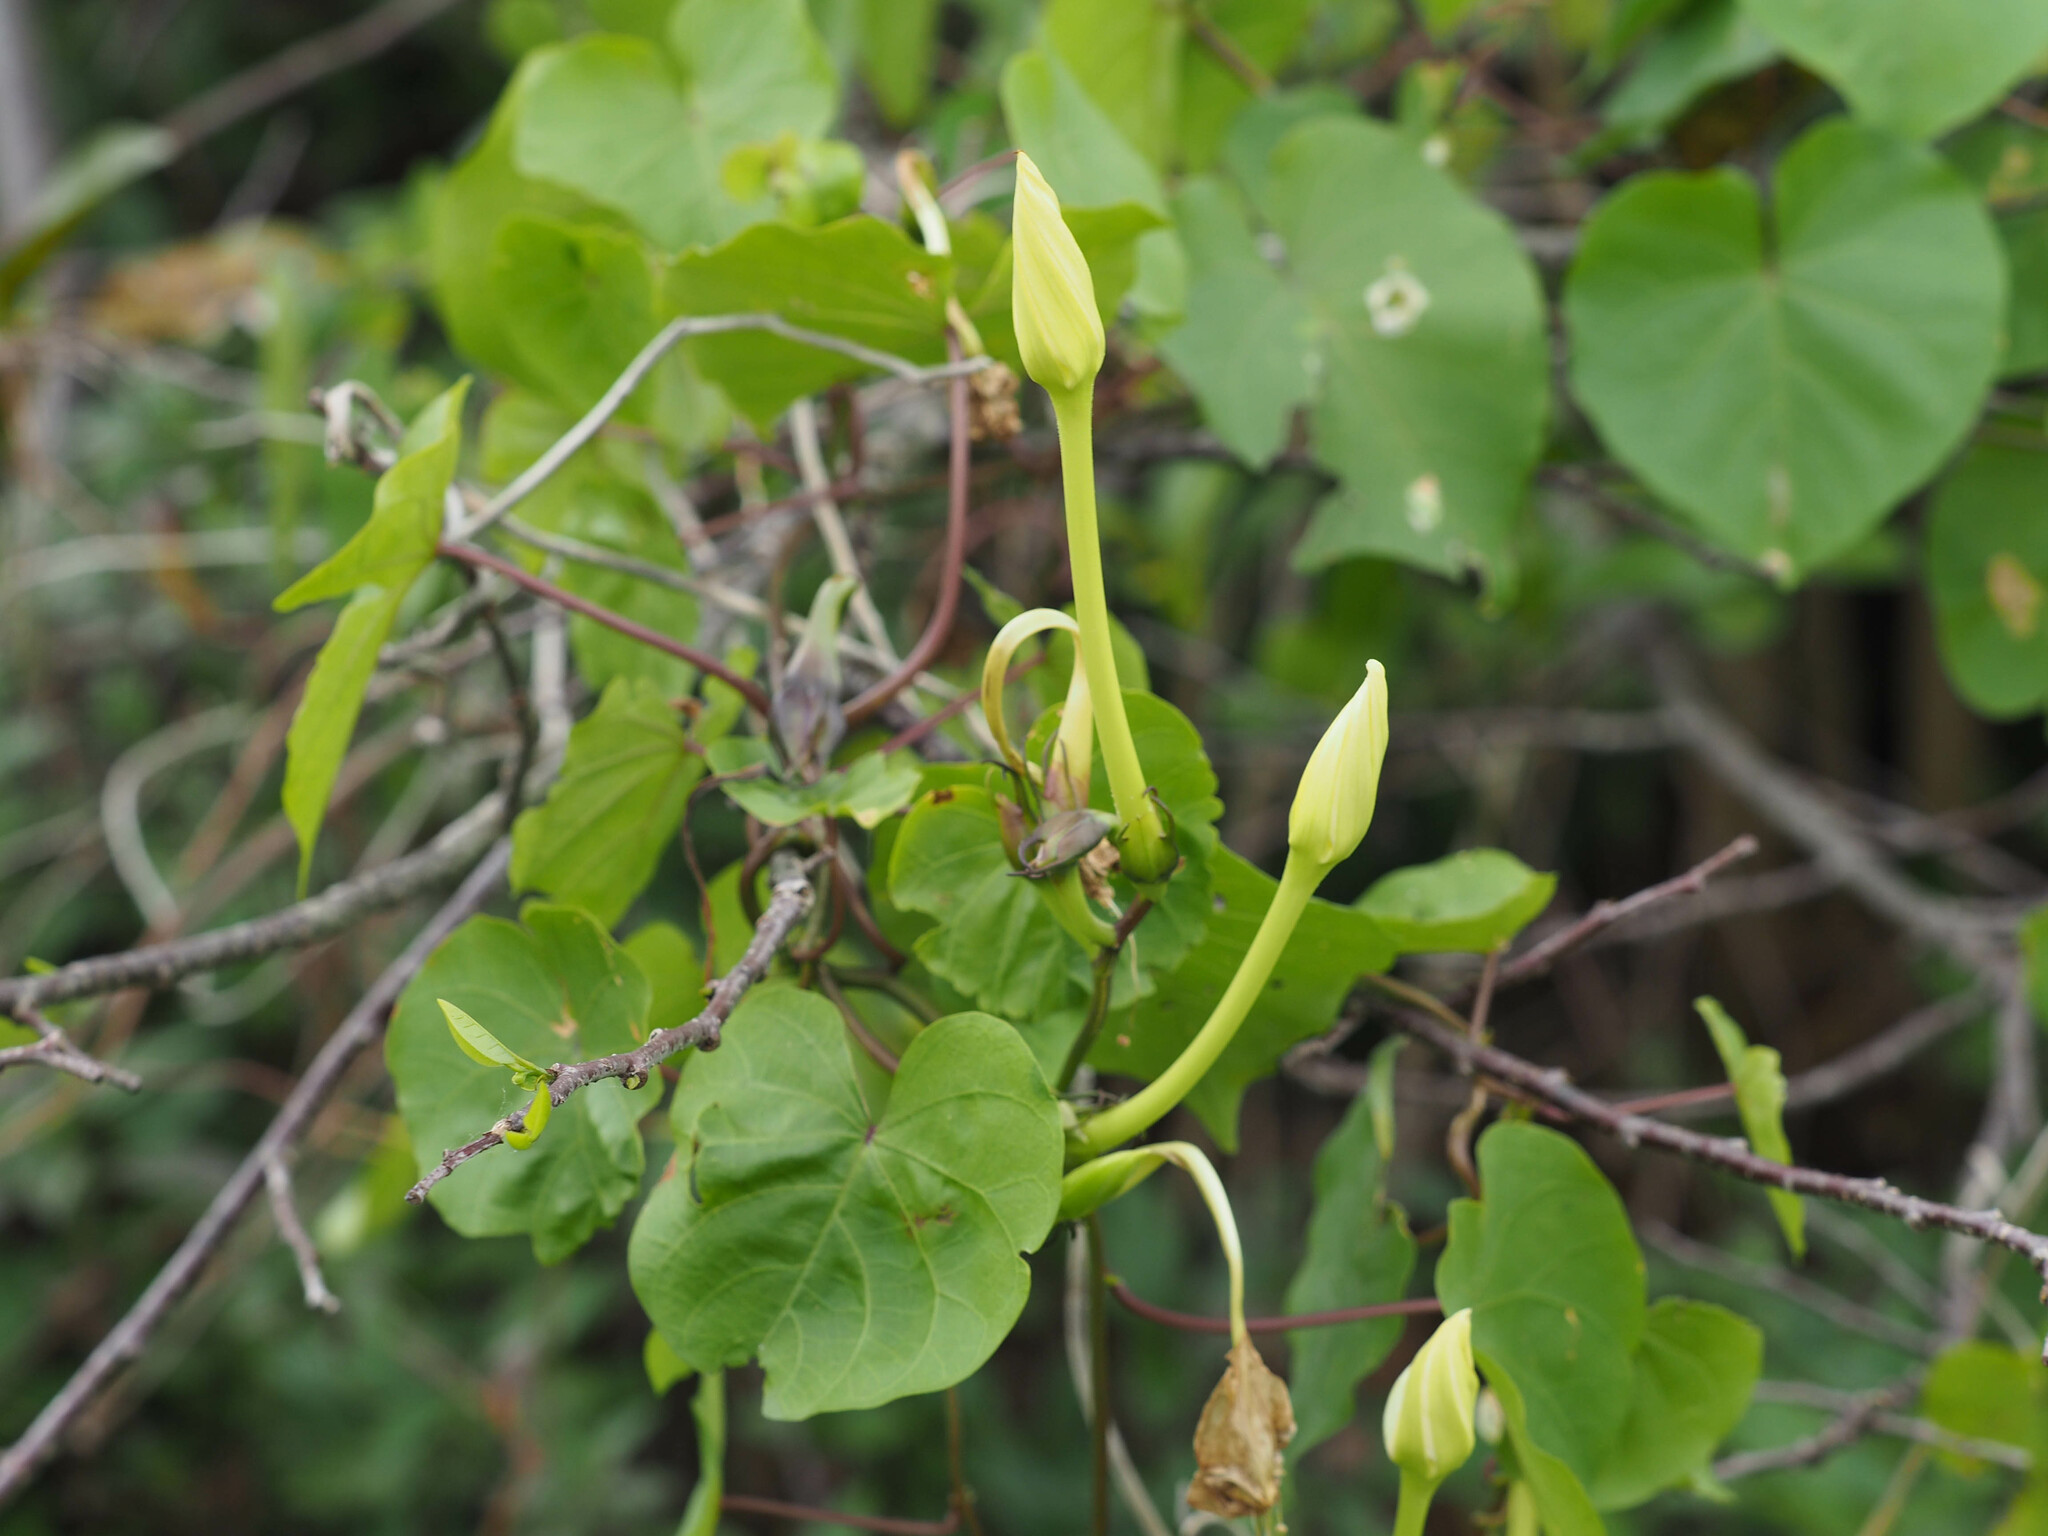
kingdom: Plantae
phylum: Tracheophyta
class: Magnoliopsida
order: Solanales
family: Convolvulaceae
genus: Ipomoea
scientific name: Ipomoea alba
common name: Moonflower
